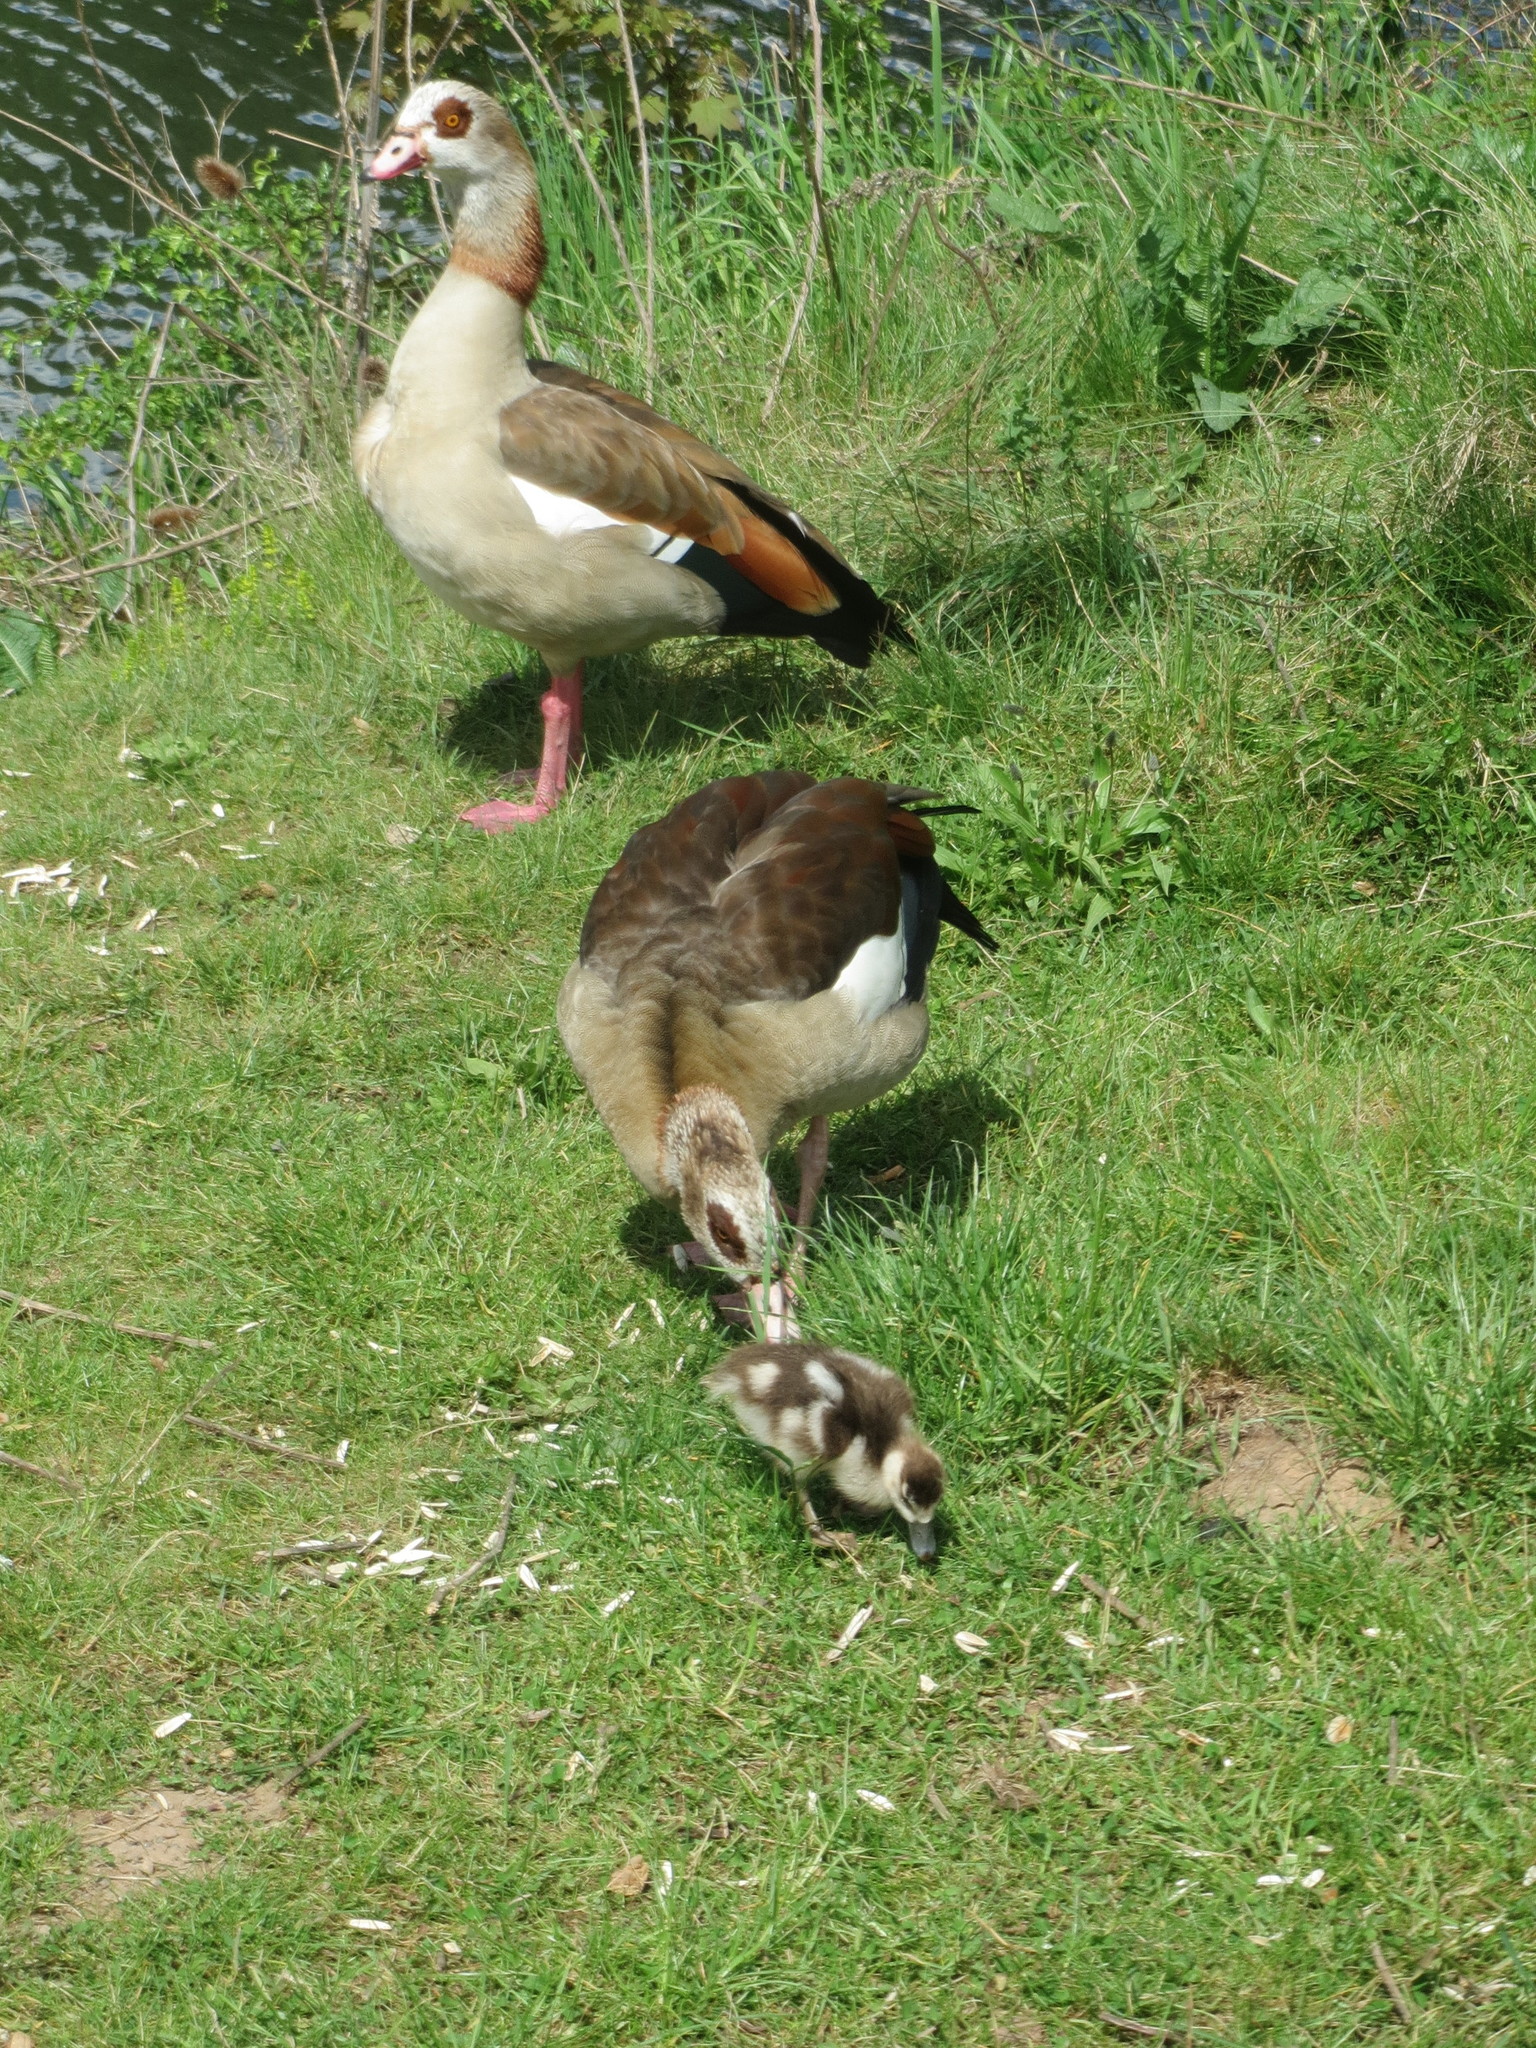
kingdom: Animalia
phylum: Chordata
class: Aves
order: Anseriformes
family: Anatidae
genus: Alopochen
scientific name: Alopochen aegyptiaca
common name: Egyptian goose
